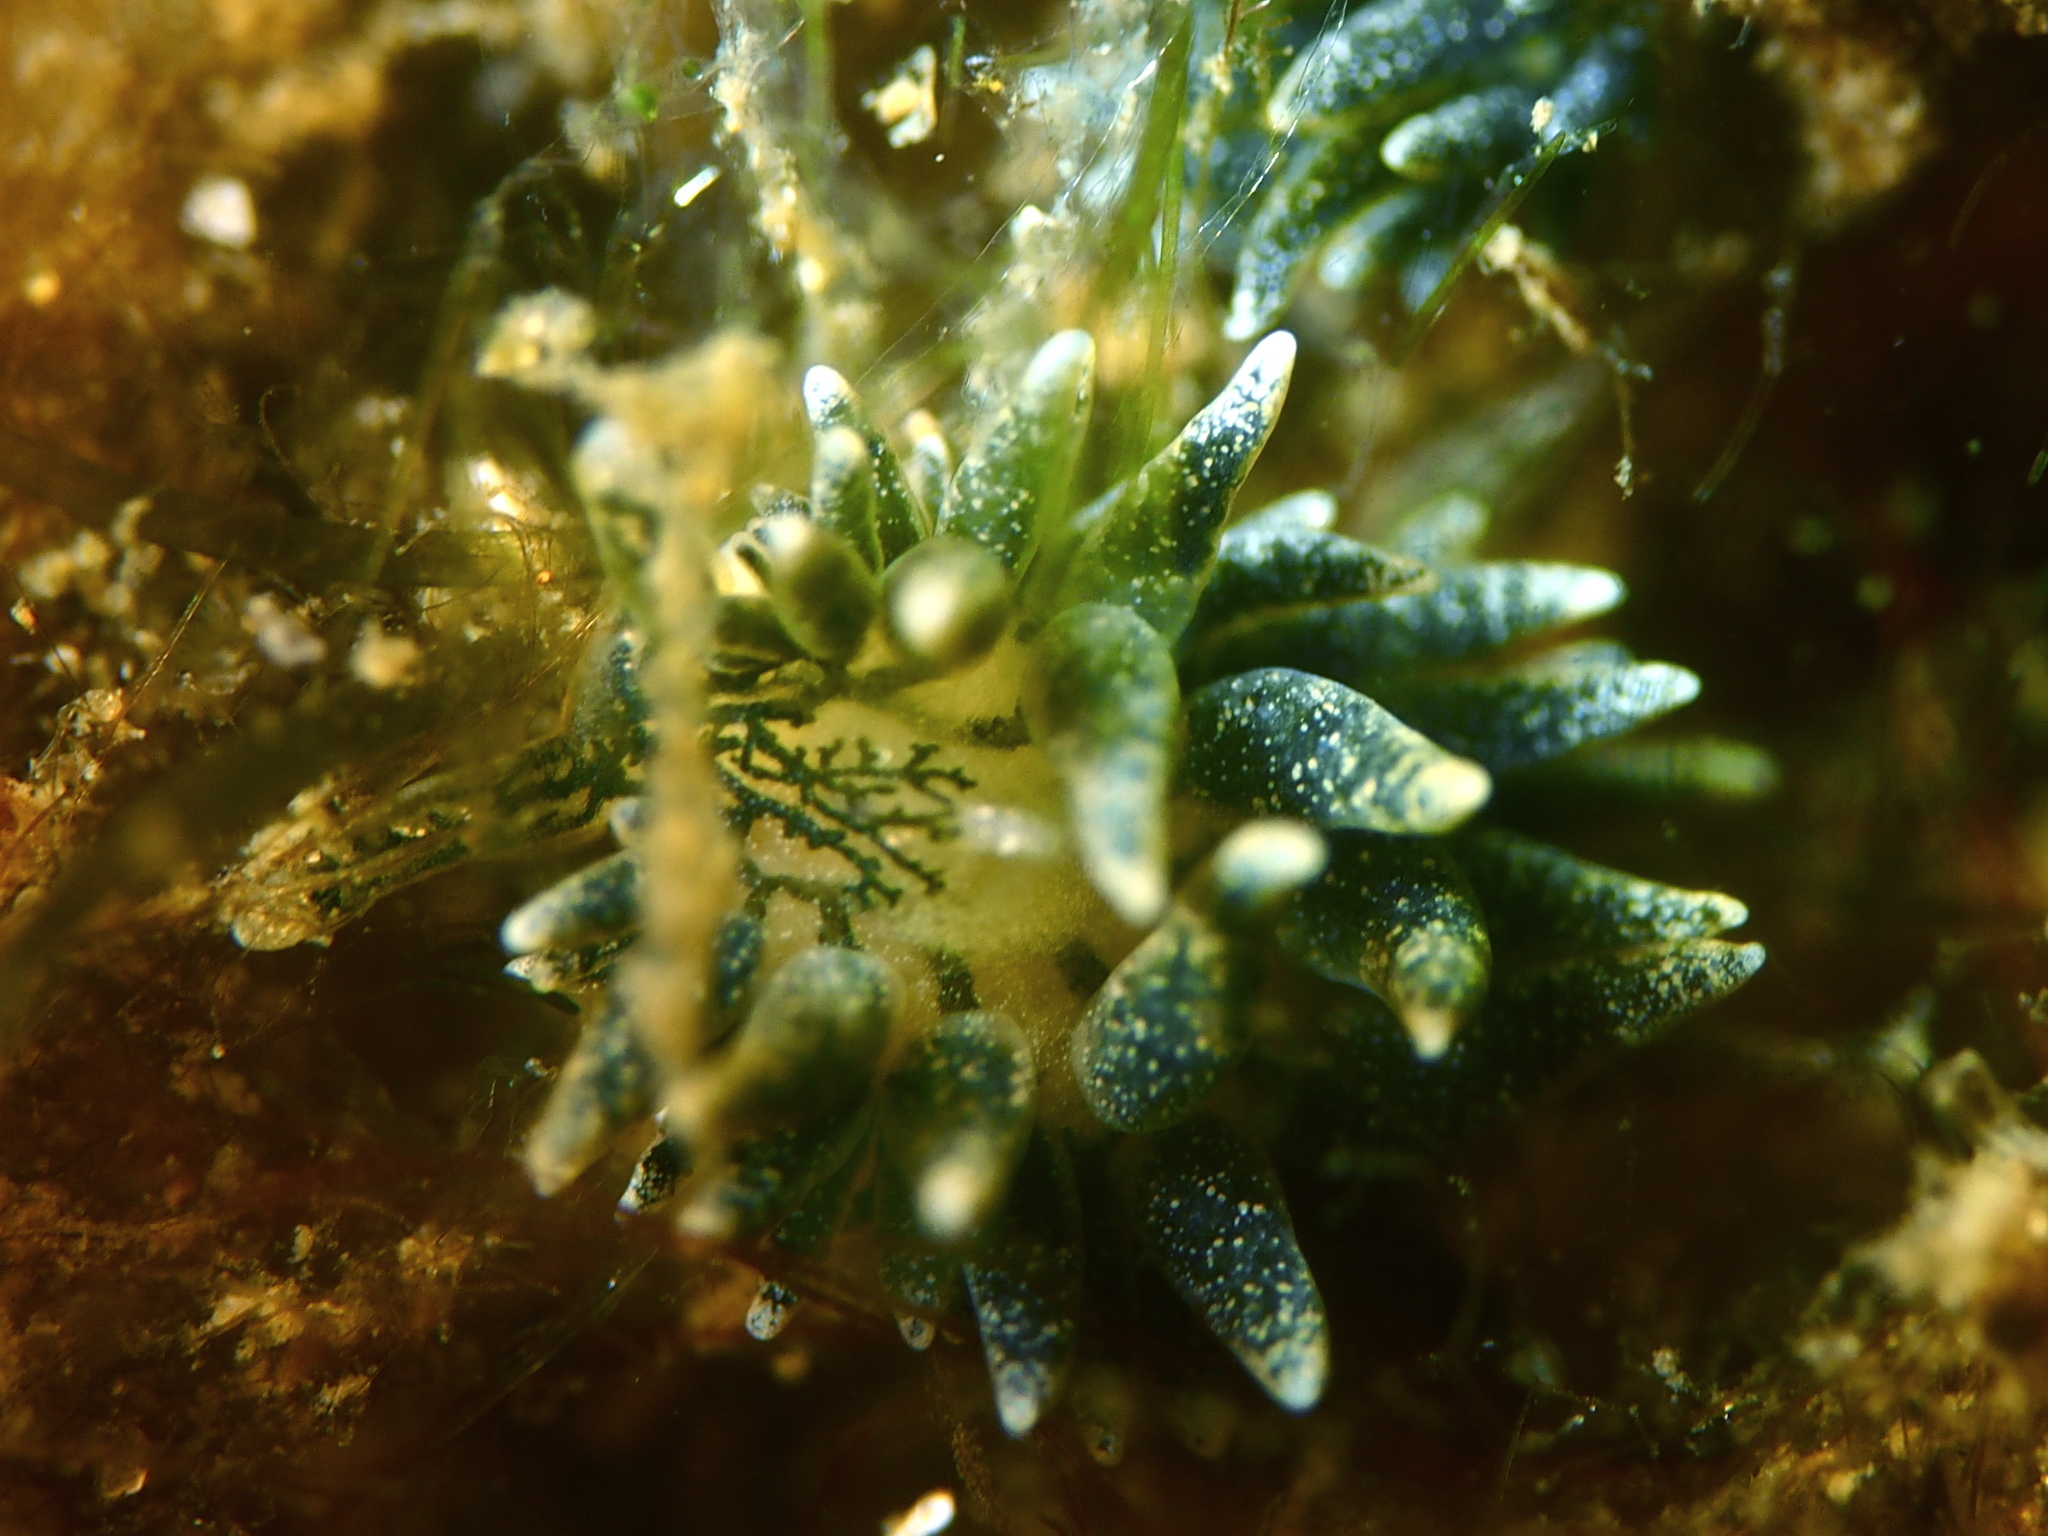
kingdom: Animalia
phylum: Mollusca
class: Gastropoda
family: Limapontiidae
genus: Placida
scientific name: Placida dendritica
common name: Dendritic nudibranch
